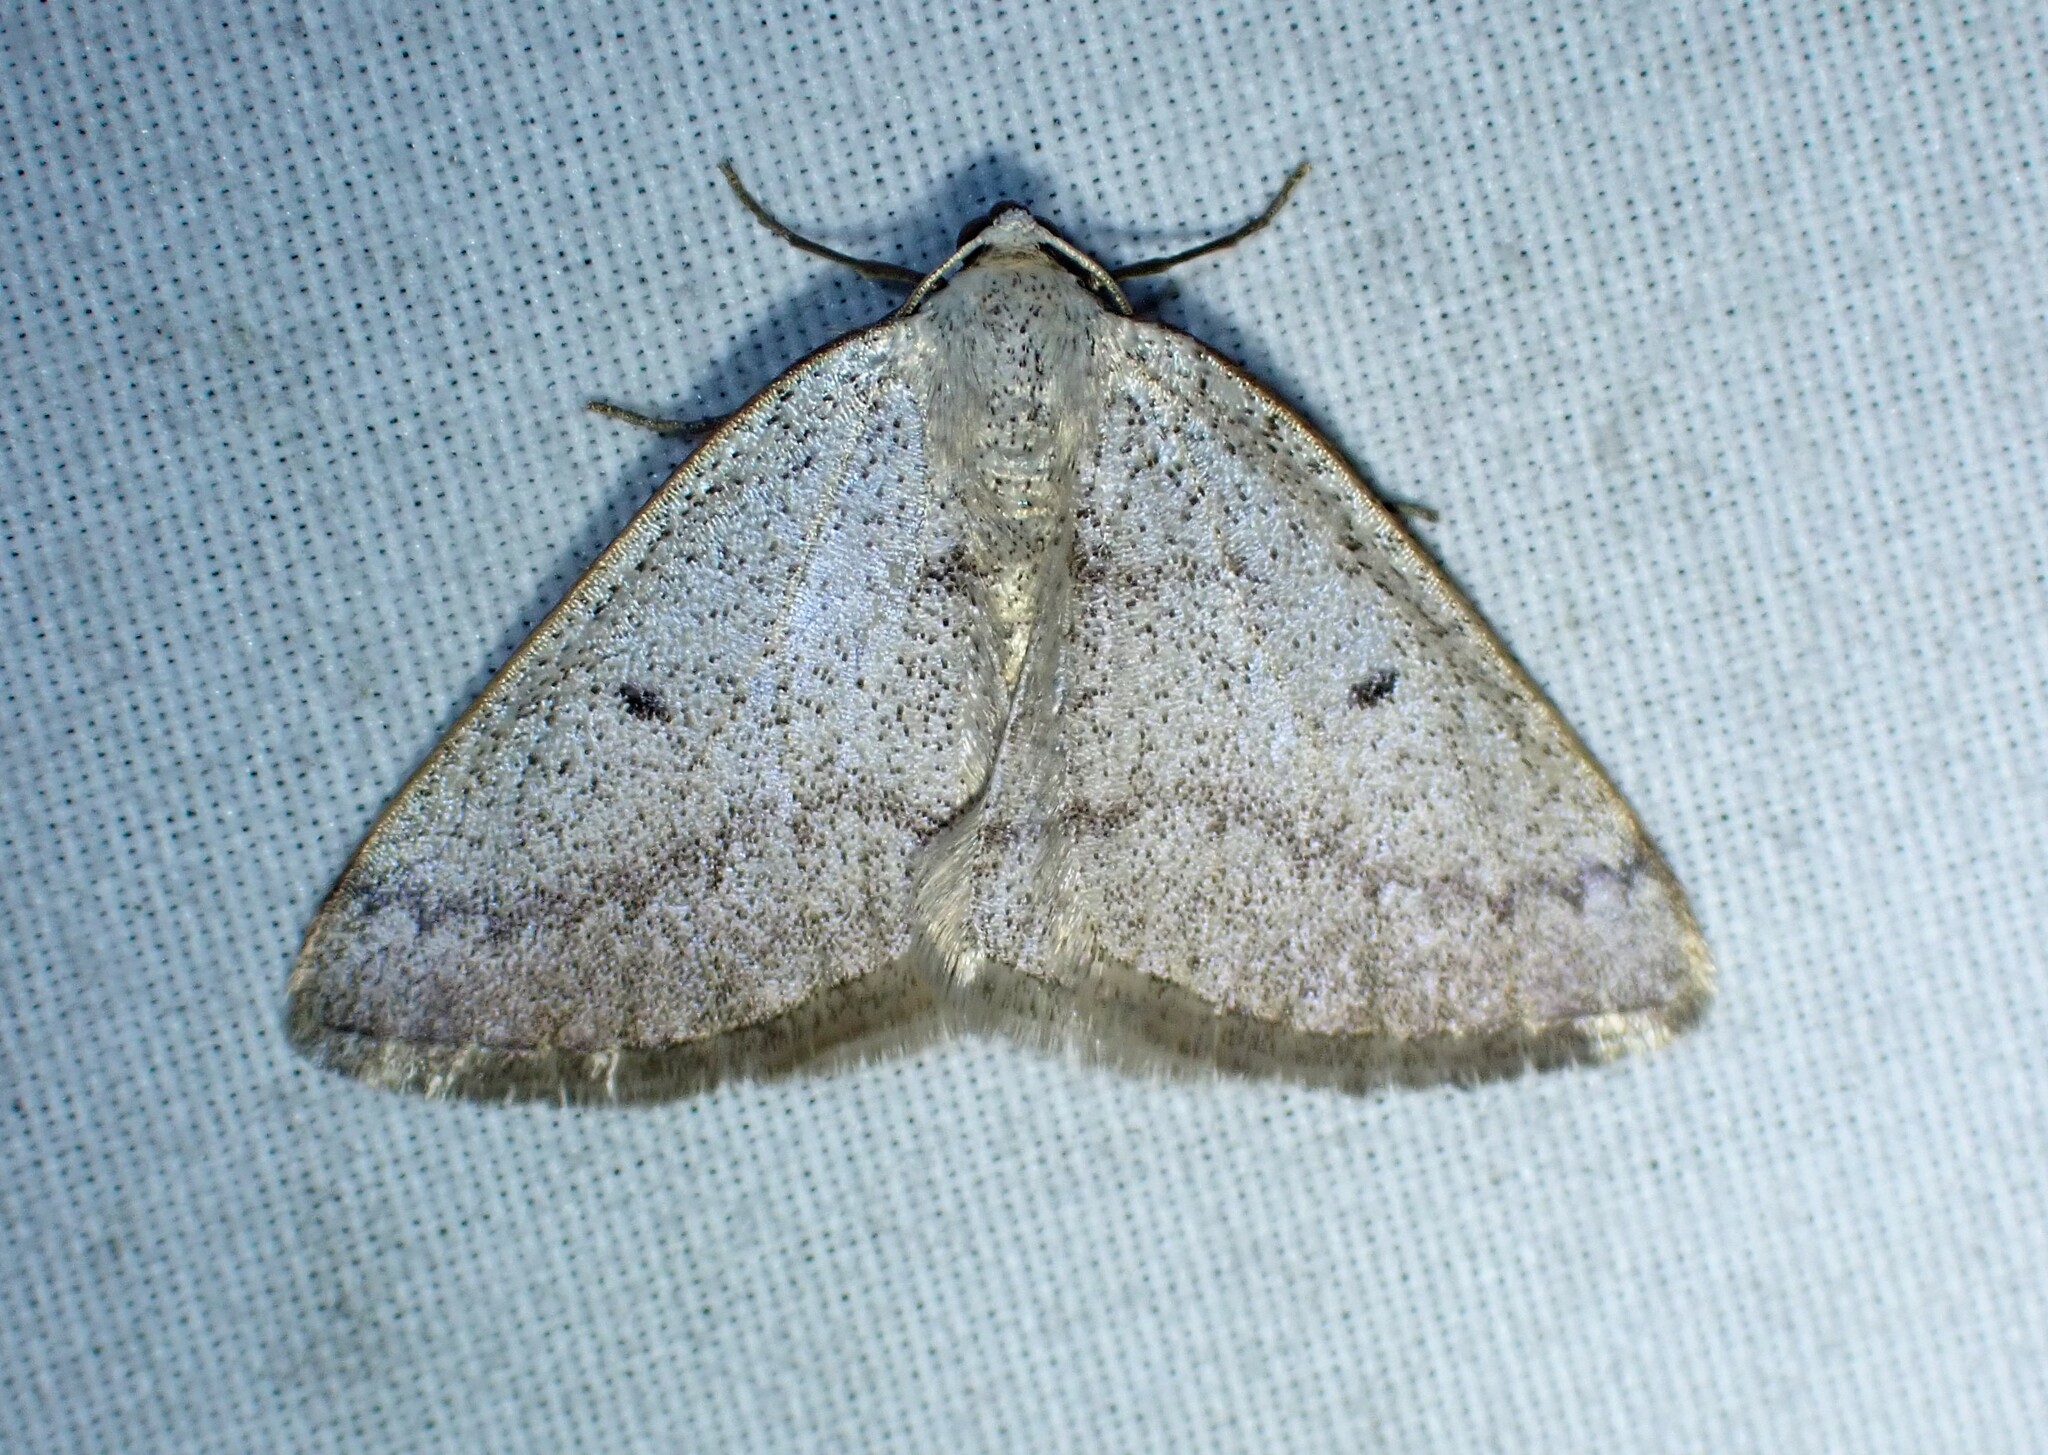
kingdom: Animalia
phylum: Arthropoda
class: Insecta
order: Lepidoptera
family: Geometridae
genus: Lomographa
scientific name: Lomographa glomeraria
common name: Gray spring moth
